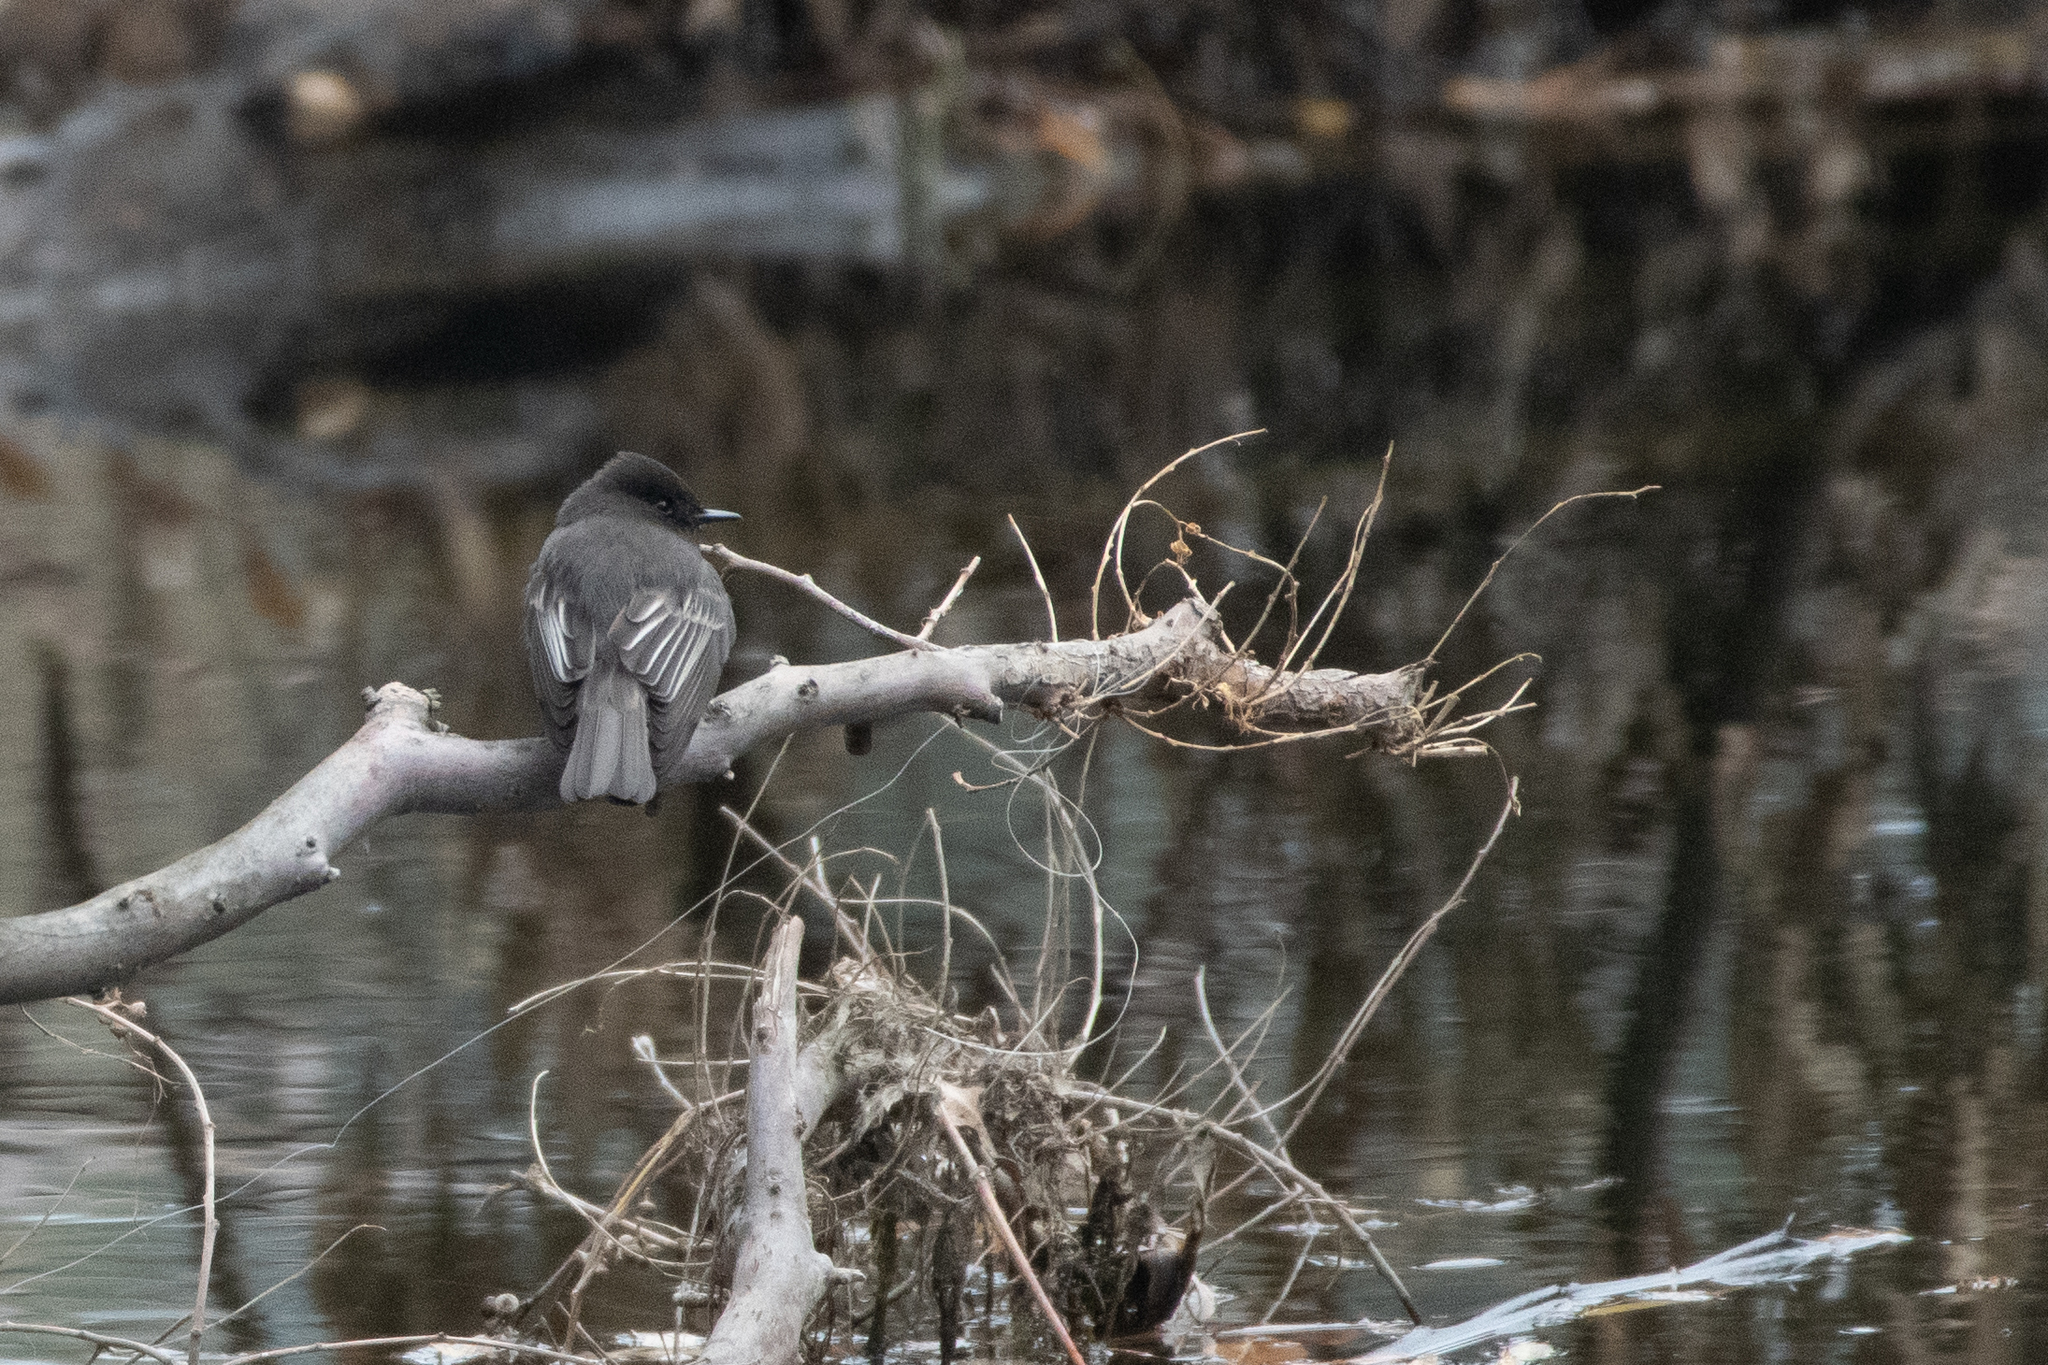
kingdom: Animalia
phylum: Chordata
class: Aves
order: Passeriformes
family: Tyrannidae
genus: Sayornis
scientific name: Sayornis nigricans
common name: Black phoebe
